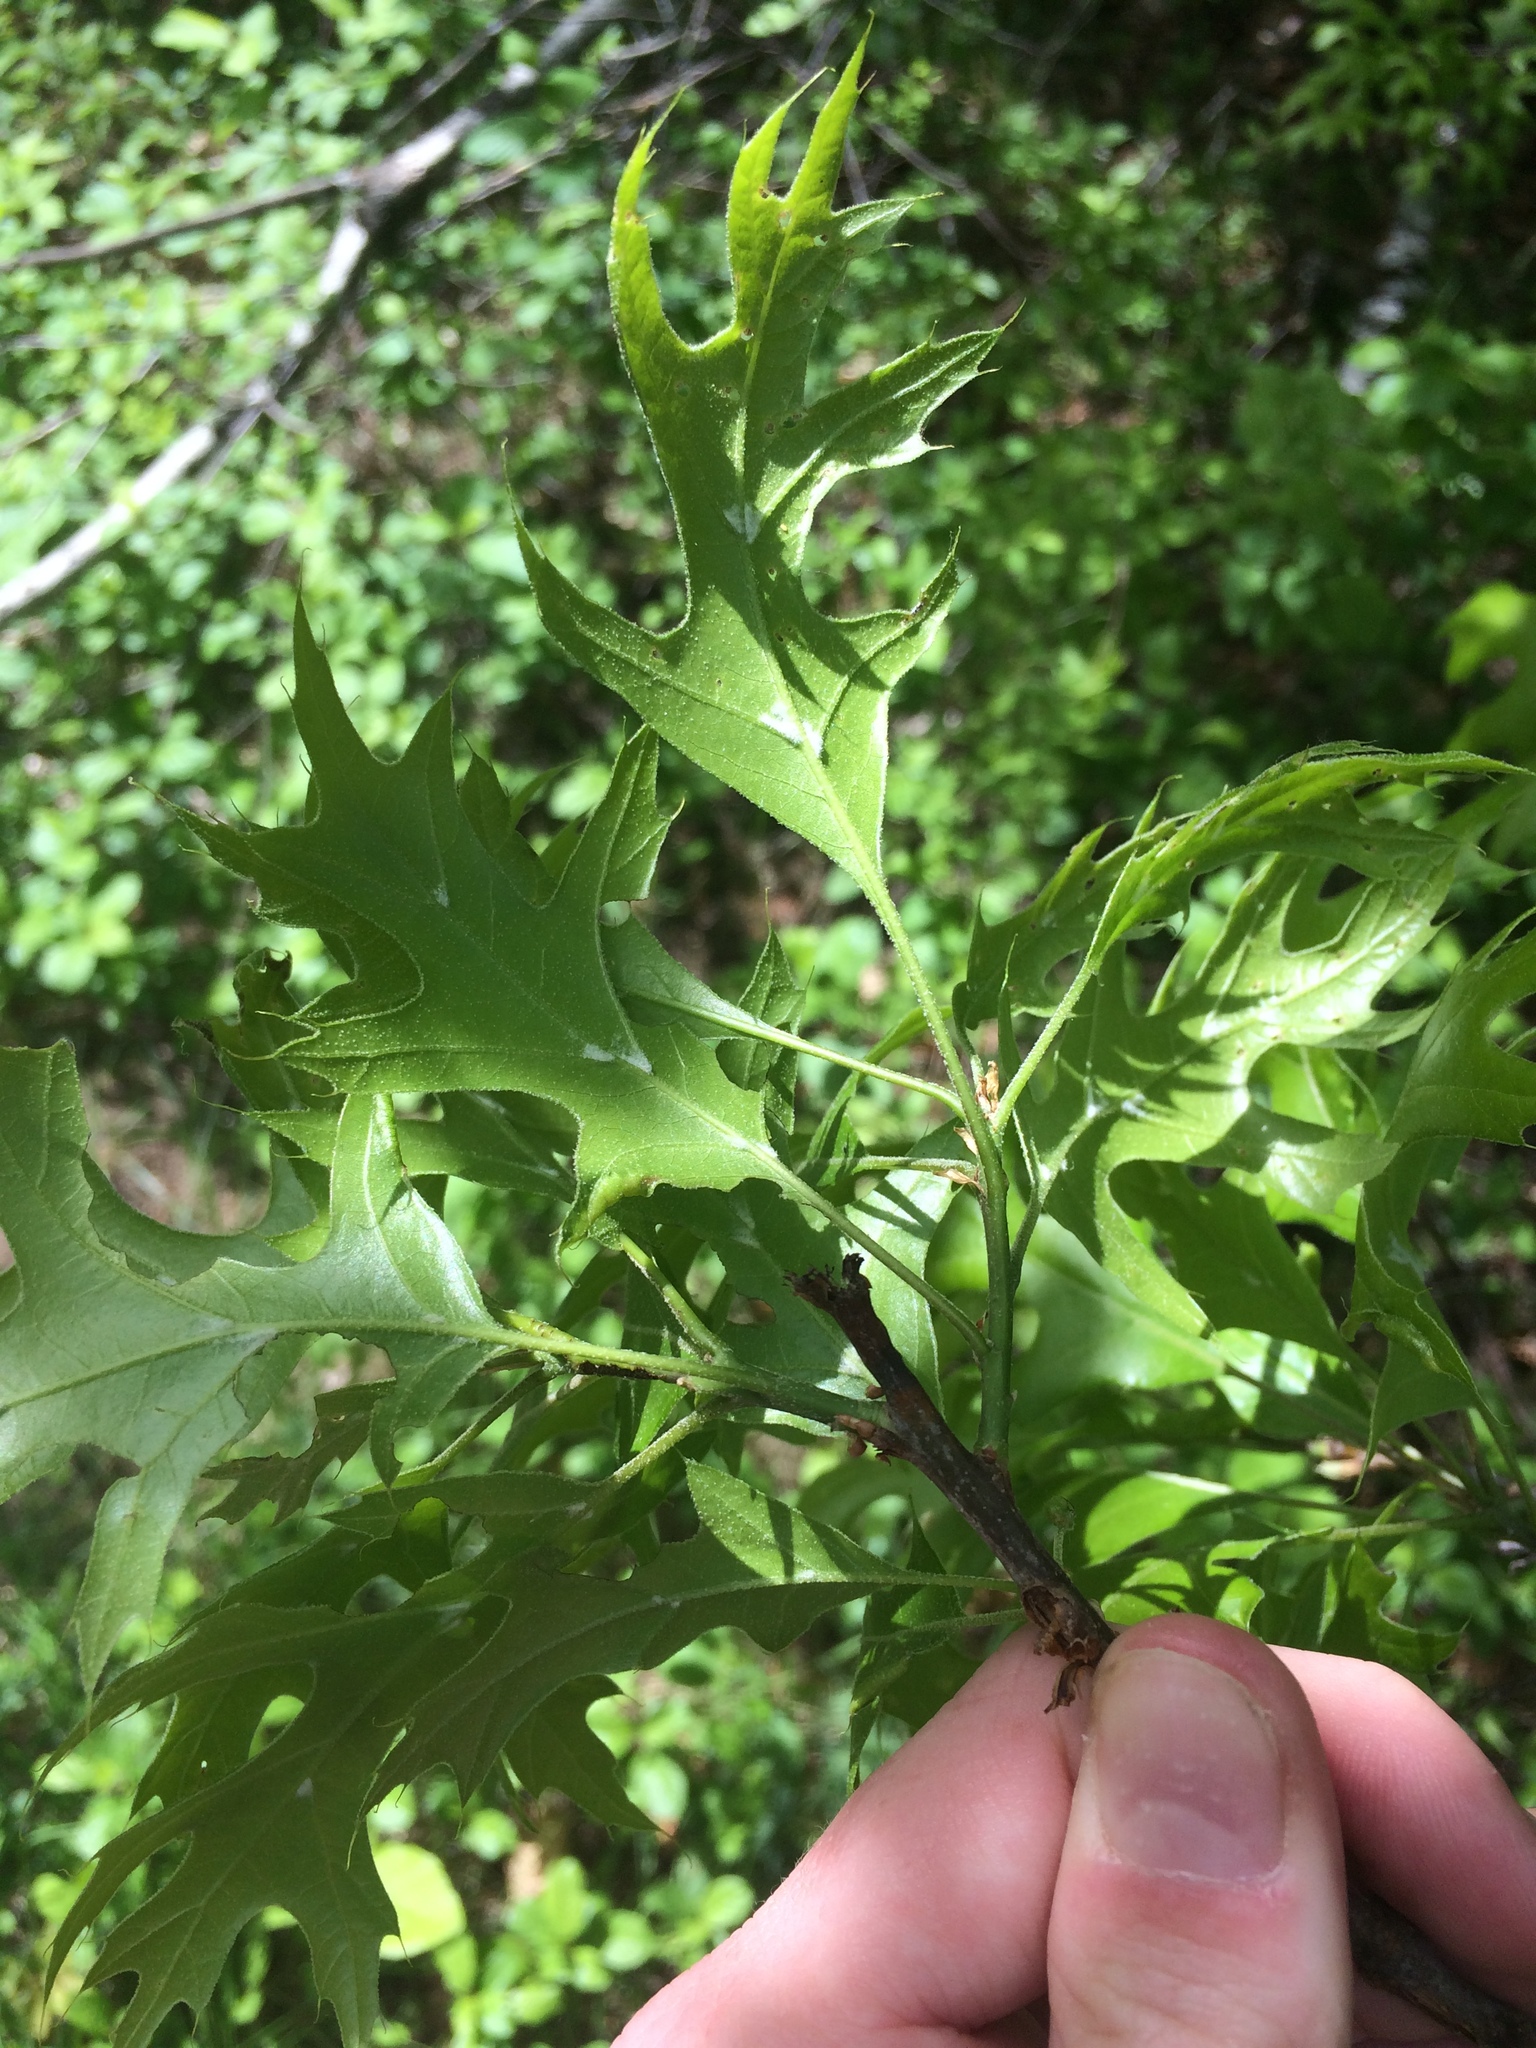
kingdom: Plantae
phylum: Tracheophyta
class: Magnoliopsida
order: Fagales
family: Fagaceae
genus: Quercus
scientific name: Quercus palustris
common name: Pin oak
